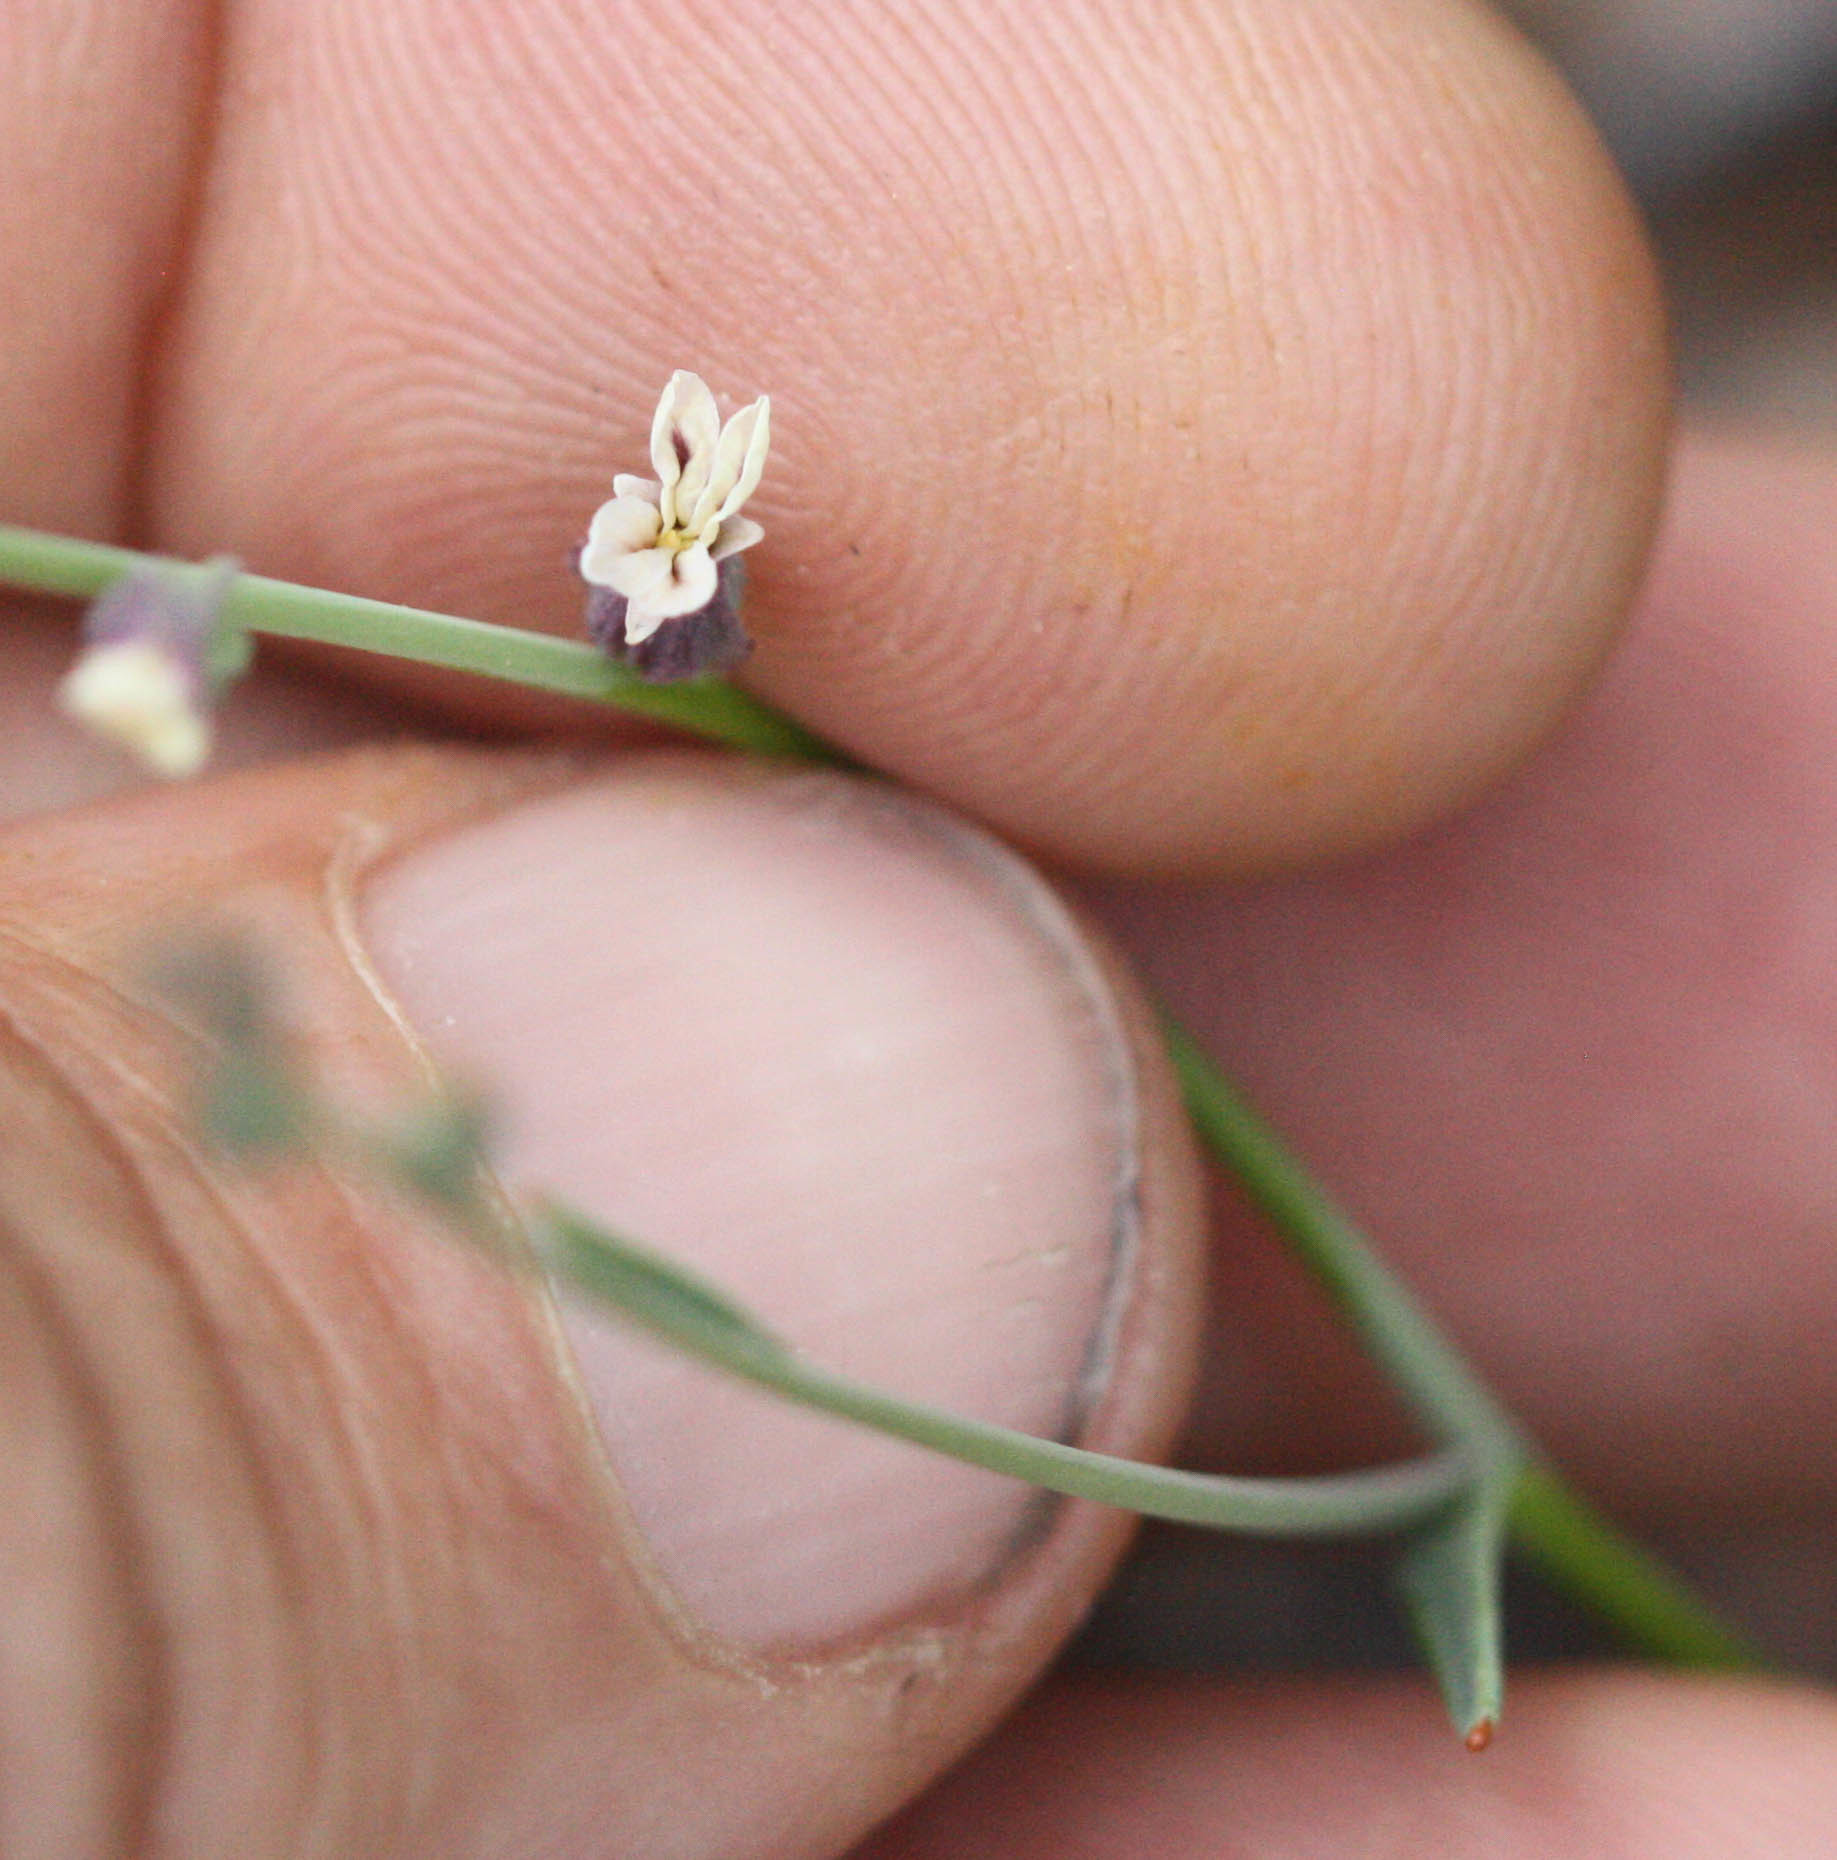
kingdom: Plantae
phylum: Tracheophyta
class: Magnoliopsida
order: Brassicales
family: Brassicaceae
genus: Streptanthus
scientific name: Streptanthus breweri
